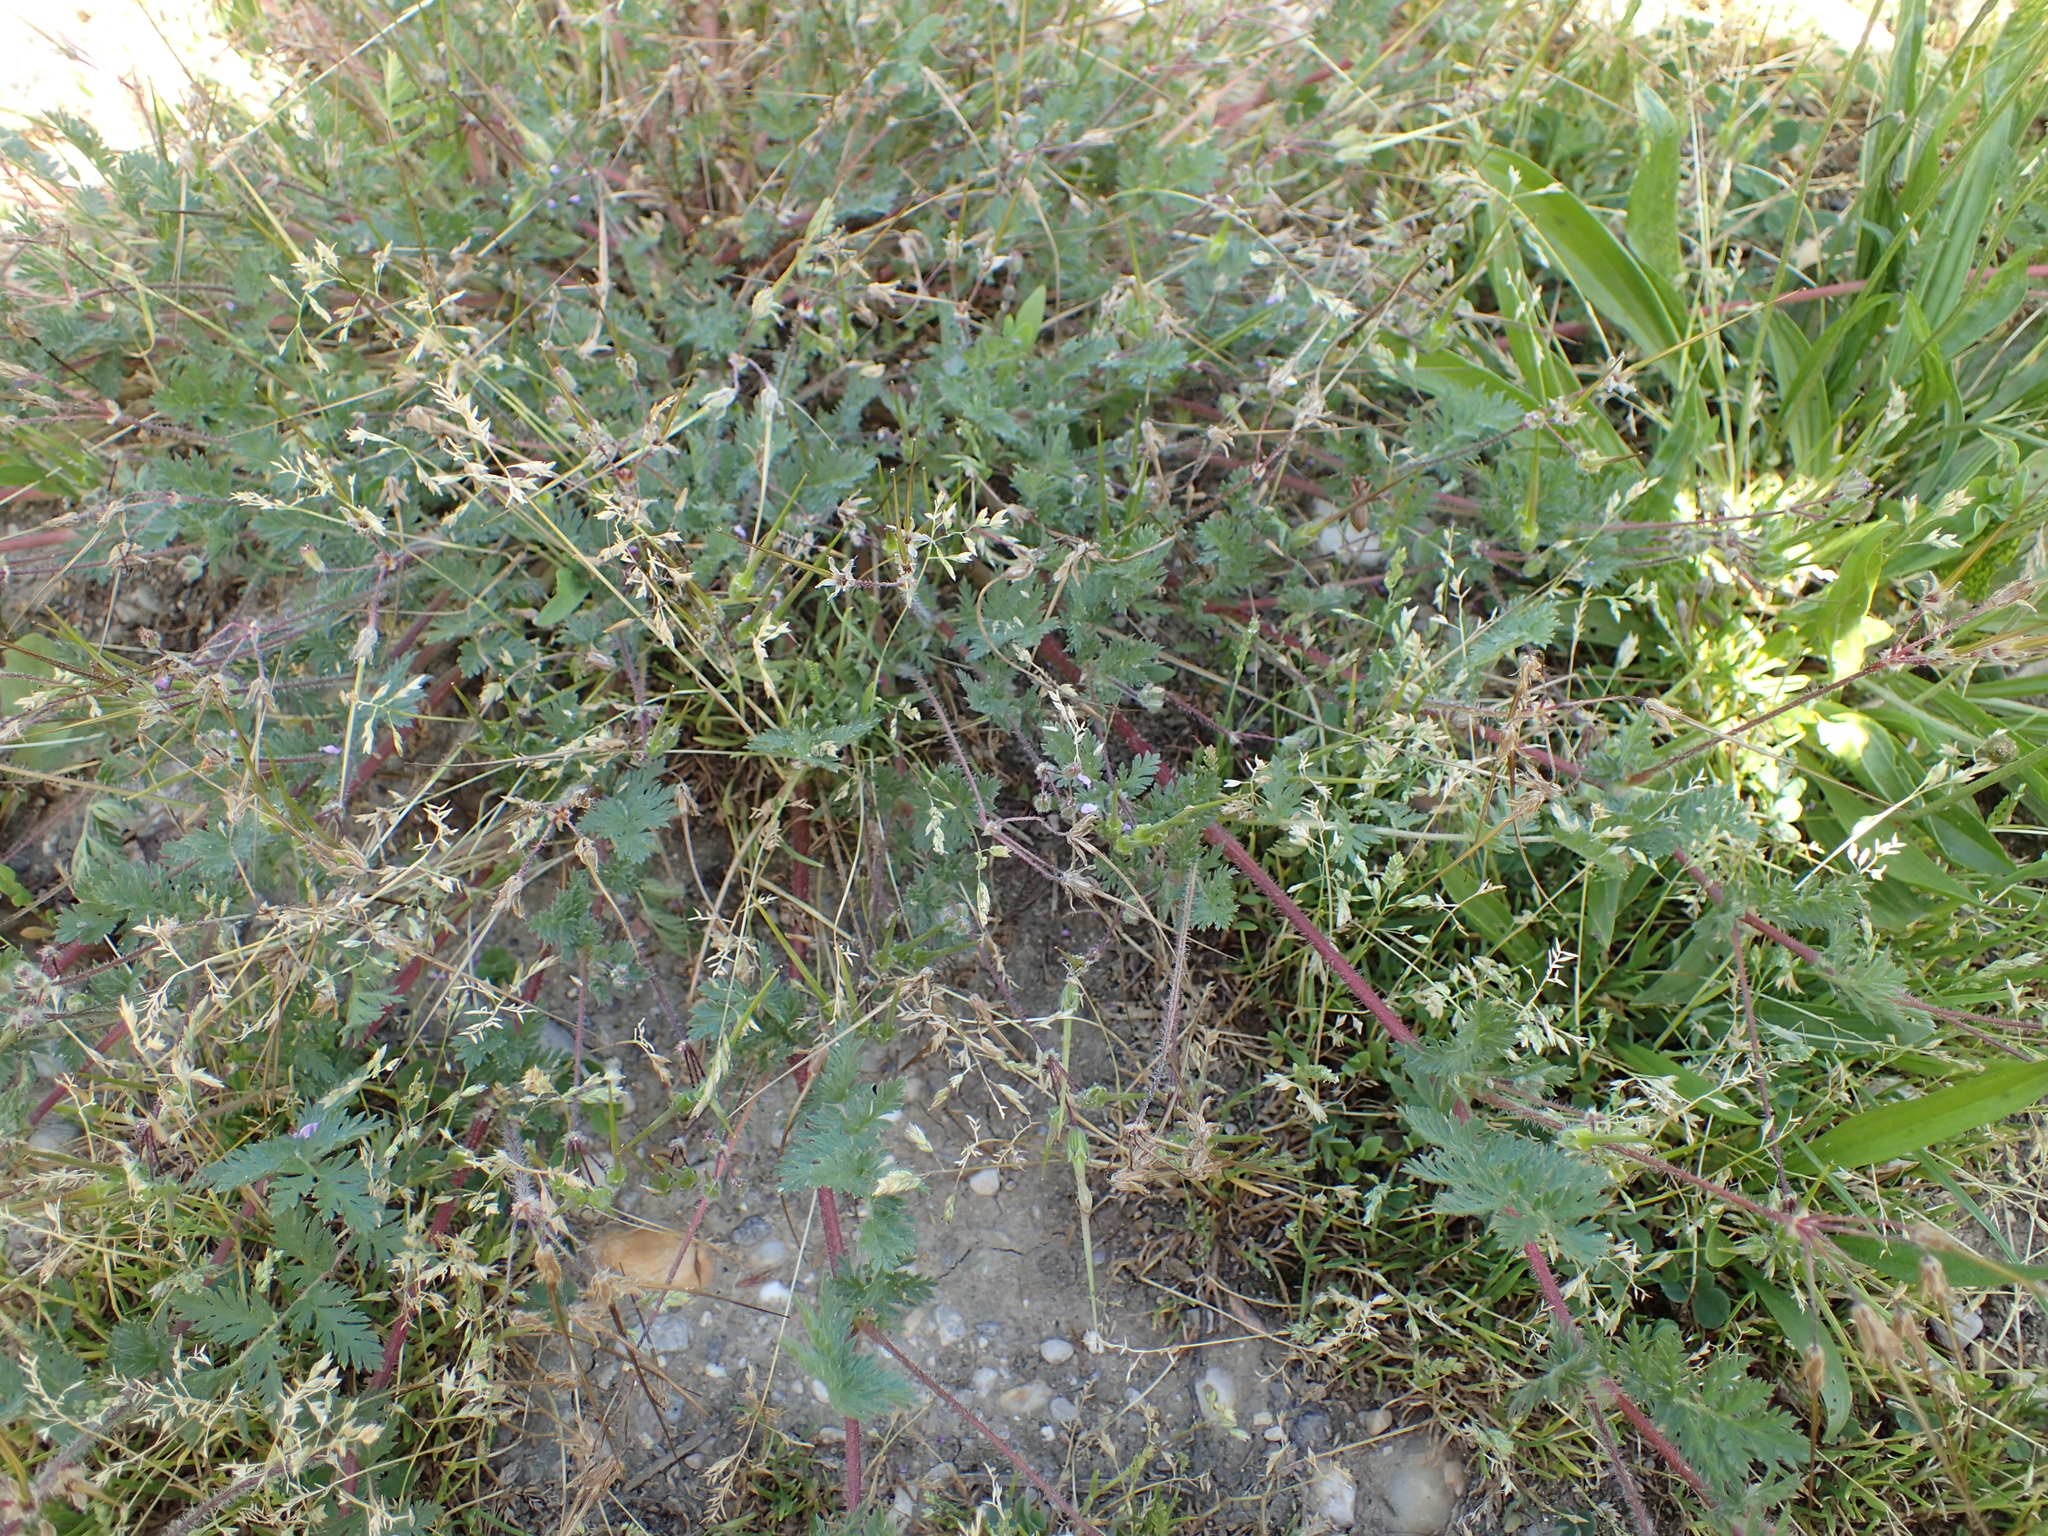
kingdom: Plantae
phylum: Tracheophyta
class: Magnoliopsida
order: Geraniales
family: Geraniaceae
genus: Erodium
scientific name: Erodium cicutarium
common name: Common stork's-bill
